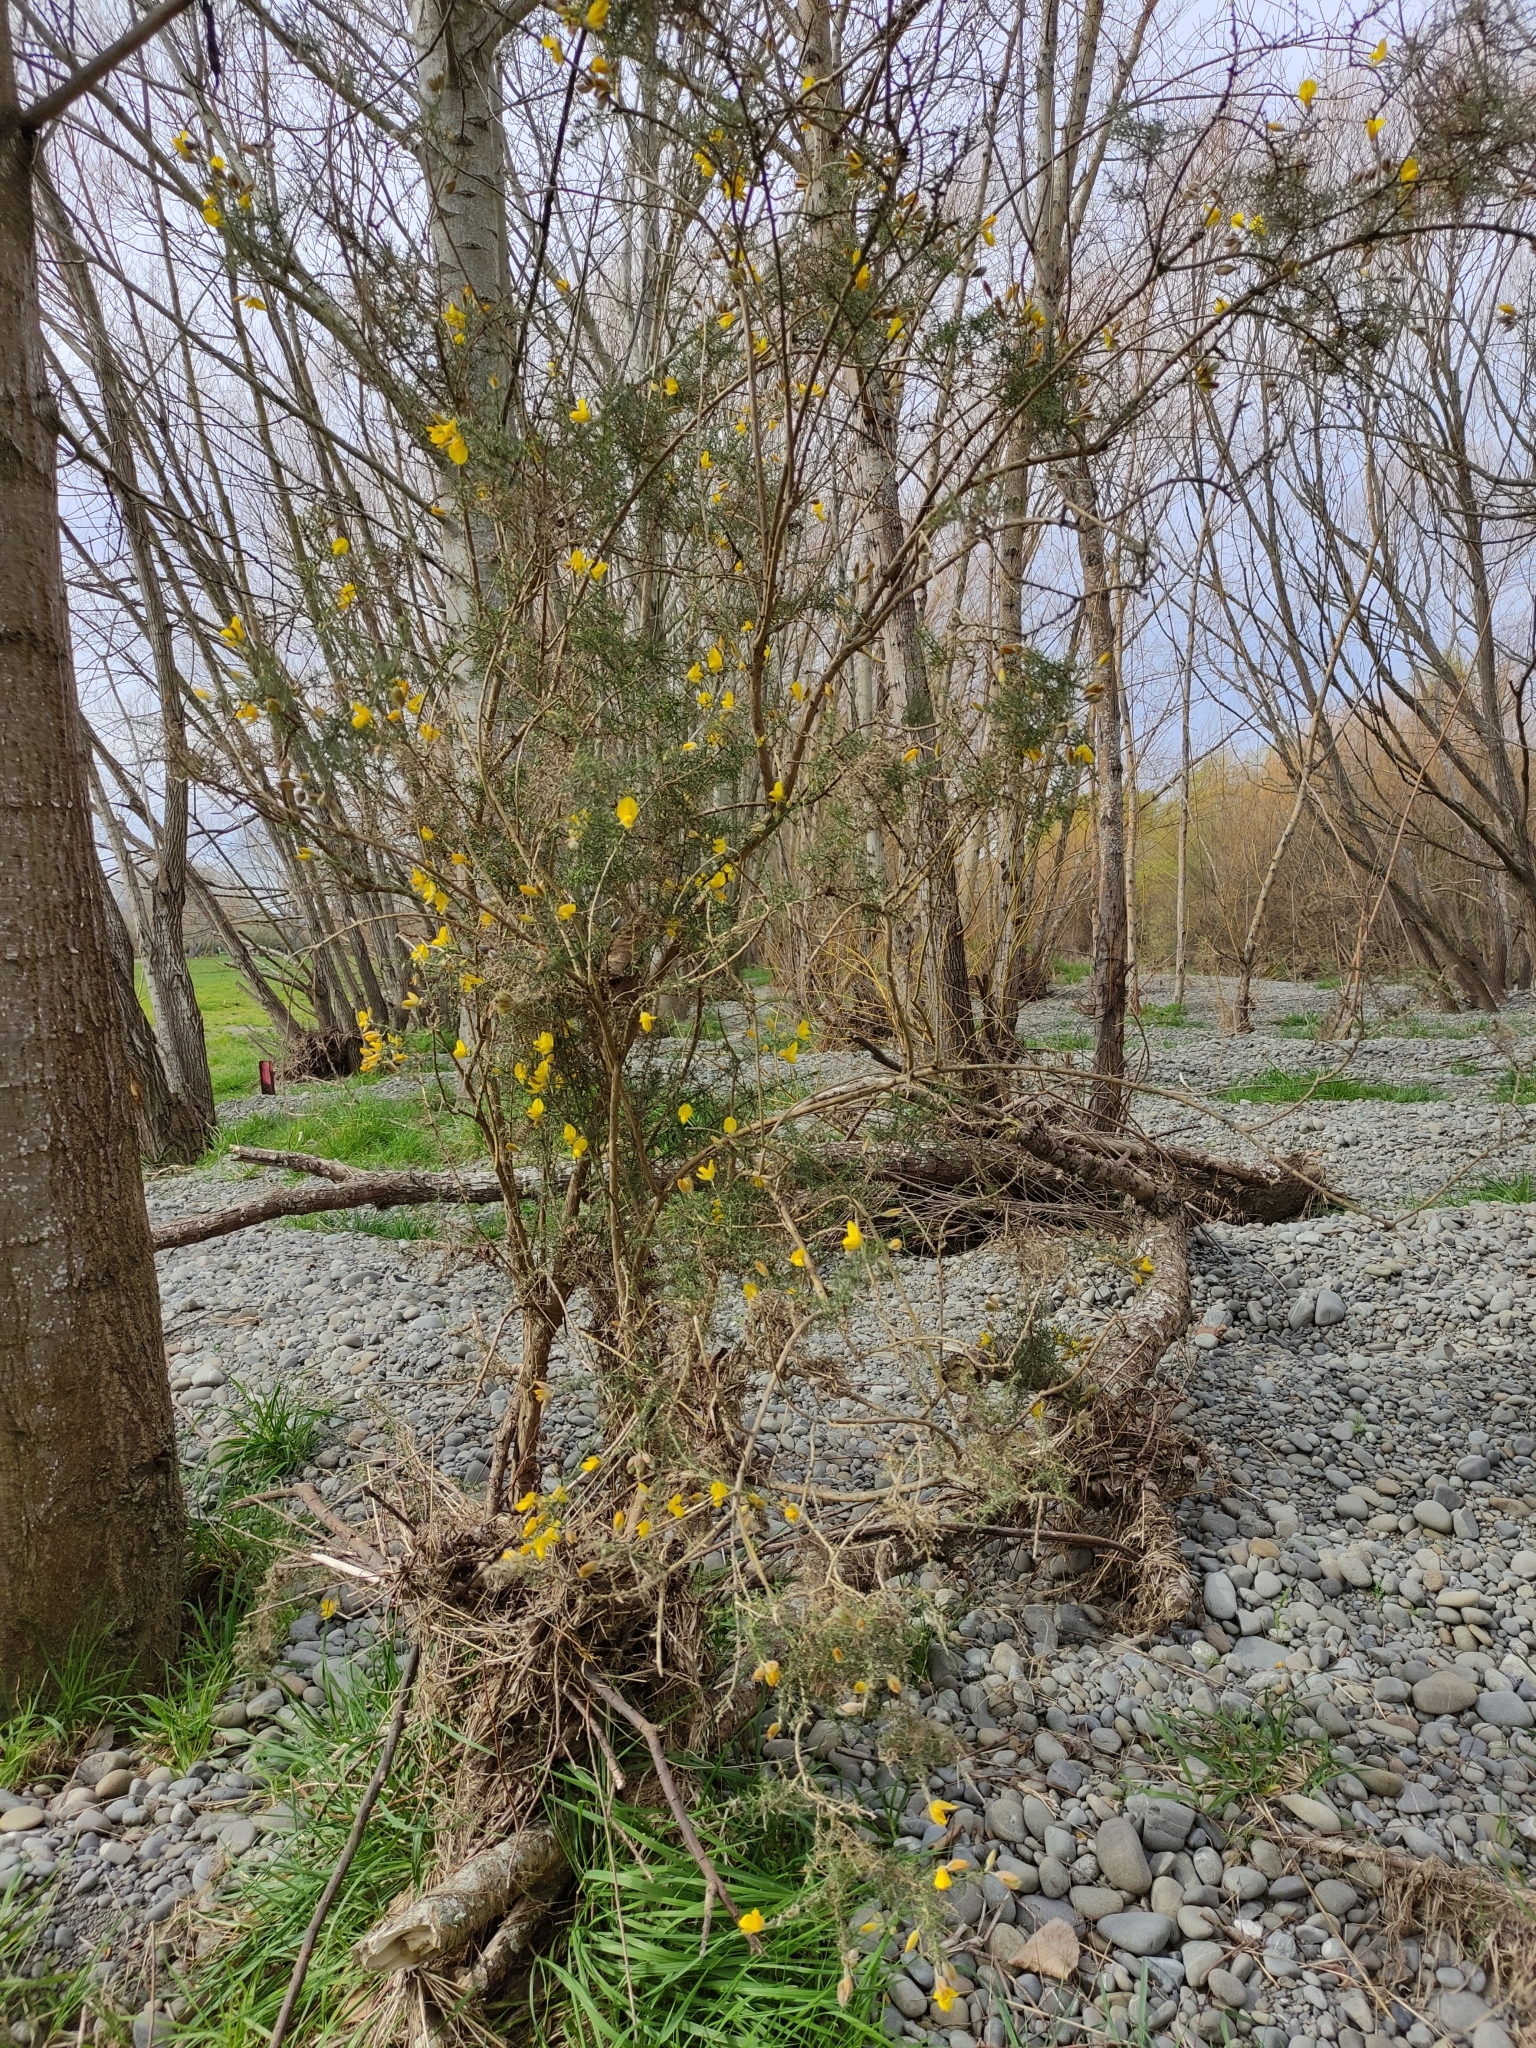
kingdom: Plantae
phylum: Tracheophyta
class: Magnoliopsida
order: Fabales
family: Fabaceae
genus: Ulex
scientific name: Ulex europaeus
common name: Common gorse
